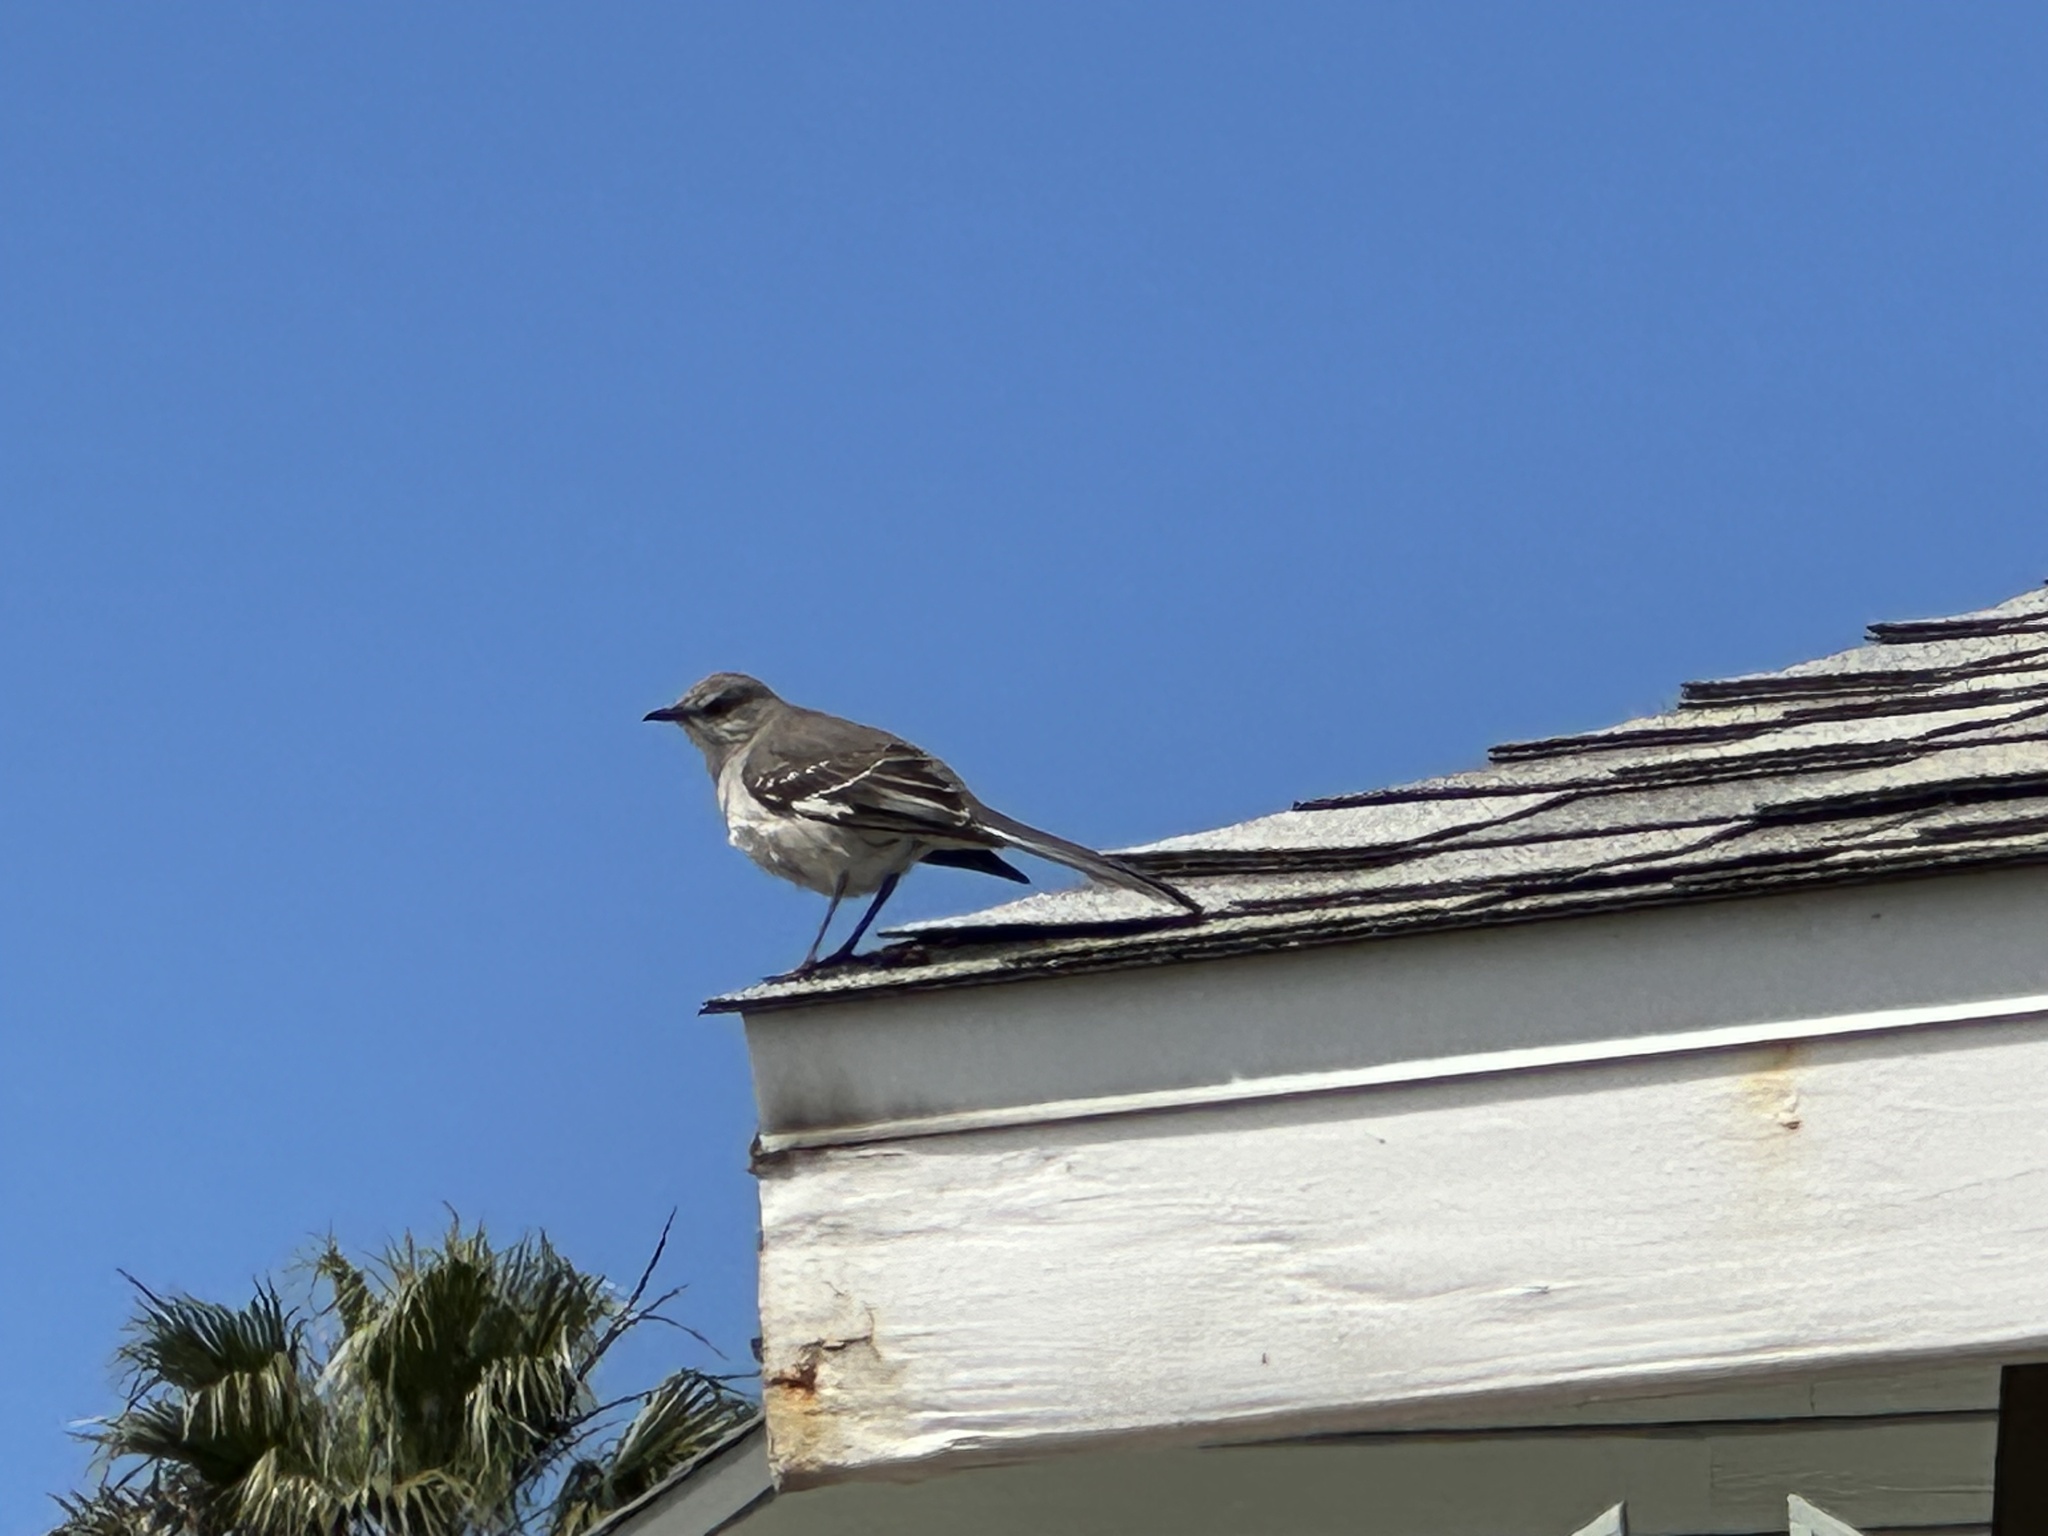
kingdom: Animalia
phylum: Chordata
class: Aves
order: Passeriformes
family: Mimidae
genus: Mimus
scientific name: Mimus polyglottos
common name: Northern mockingbird
